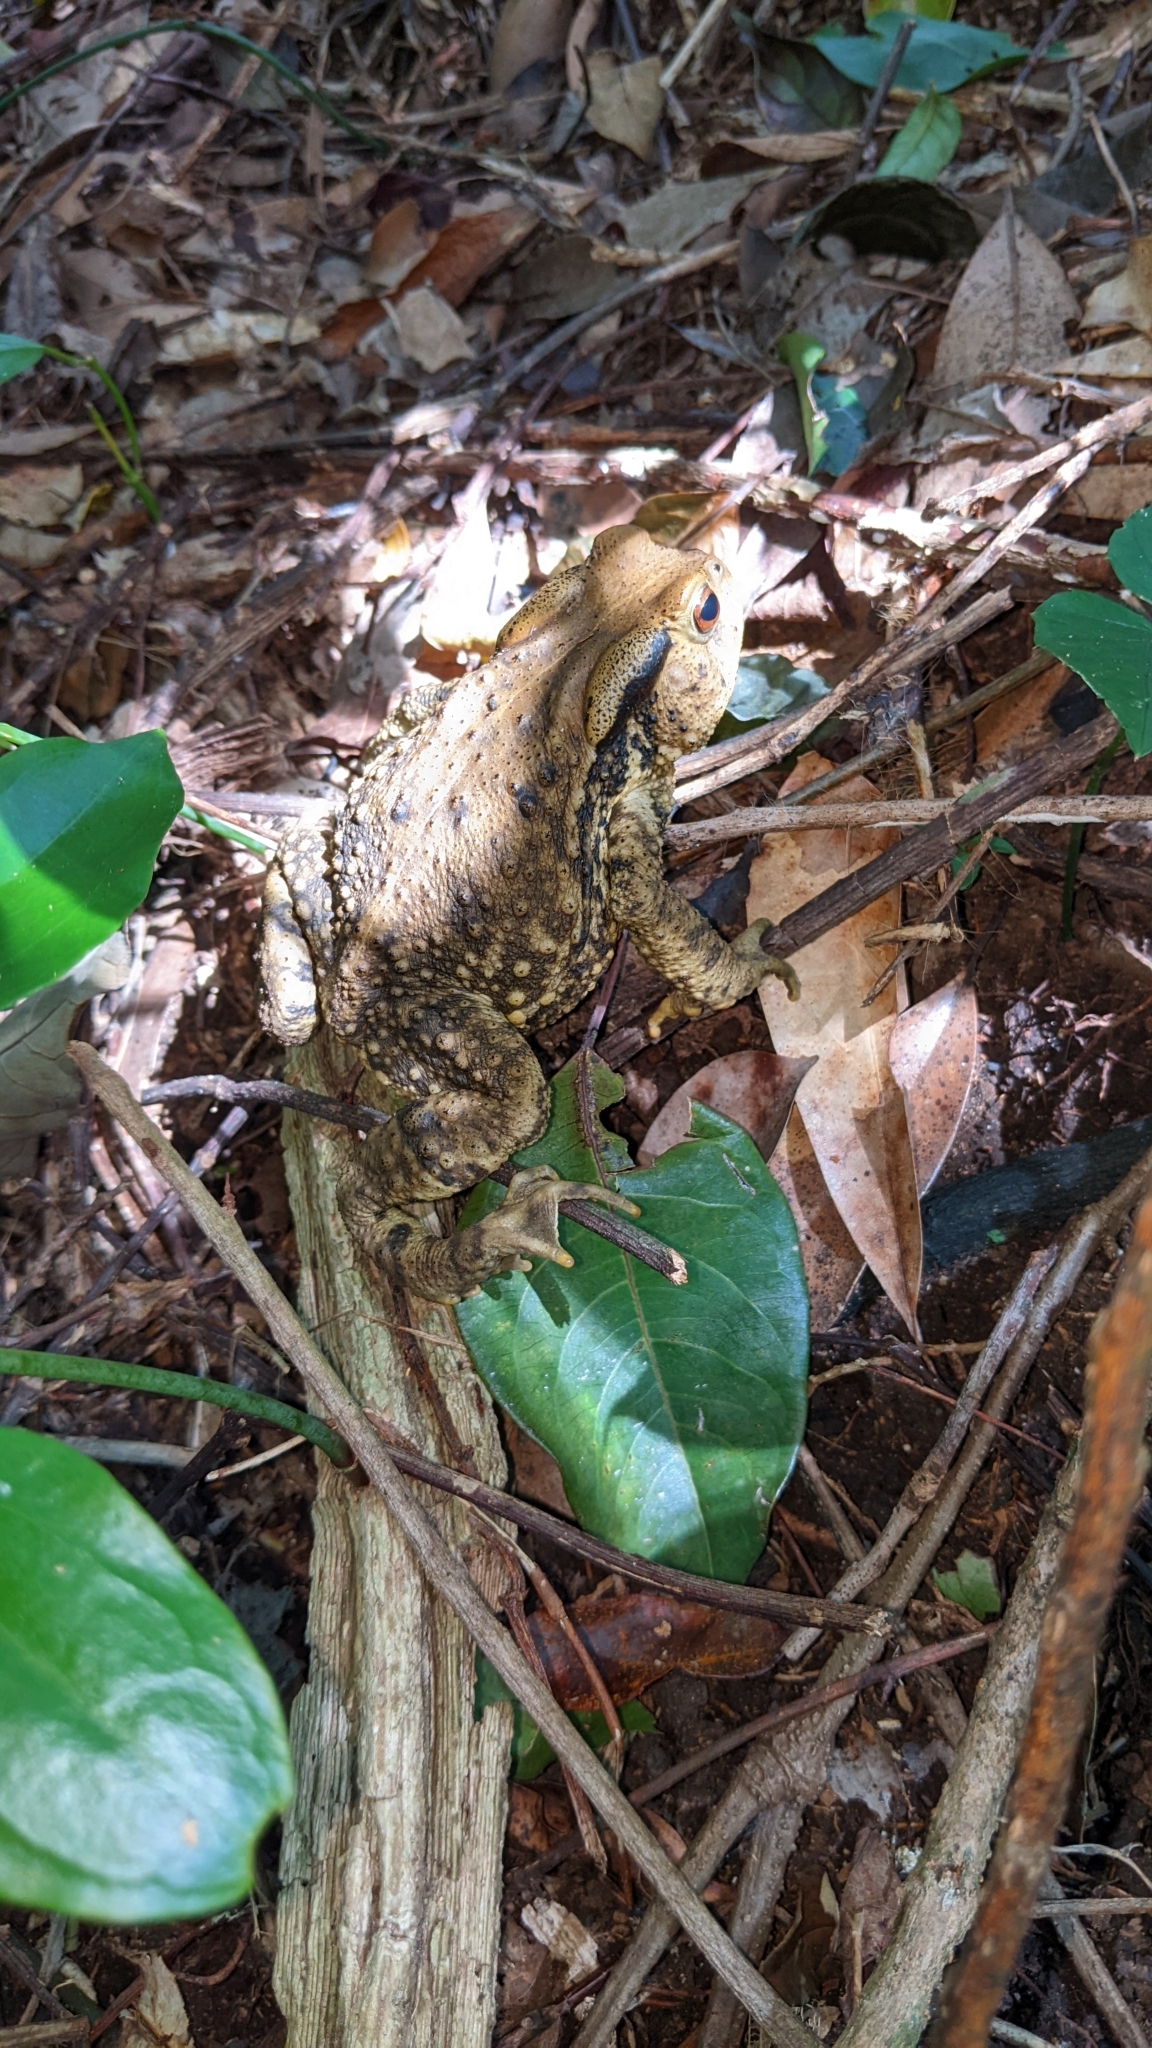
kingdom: Animalia
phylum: Chordata
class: Amphibia
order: Anura
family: Bufonidae
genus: Bufo
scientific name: Bufo bankorensis
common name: Bankor toad
